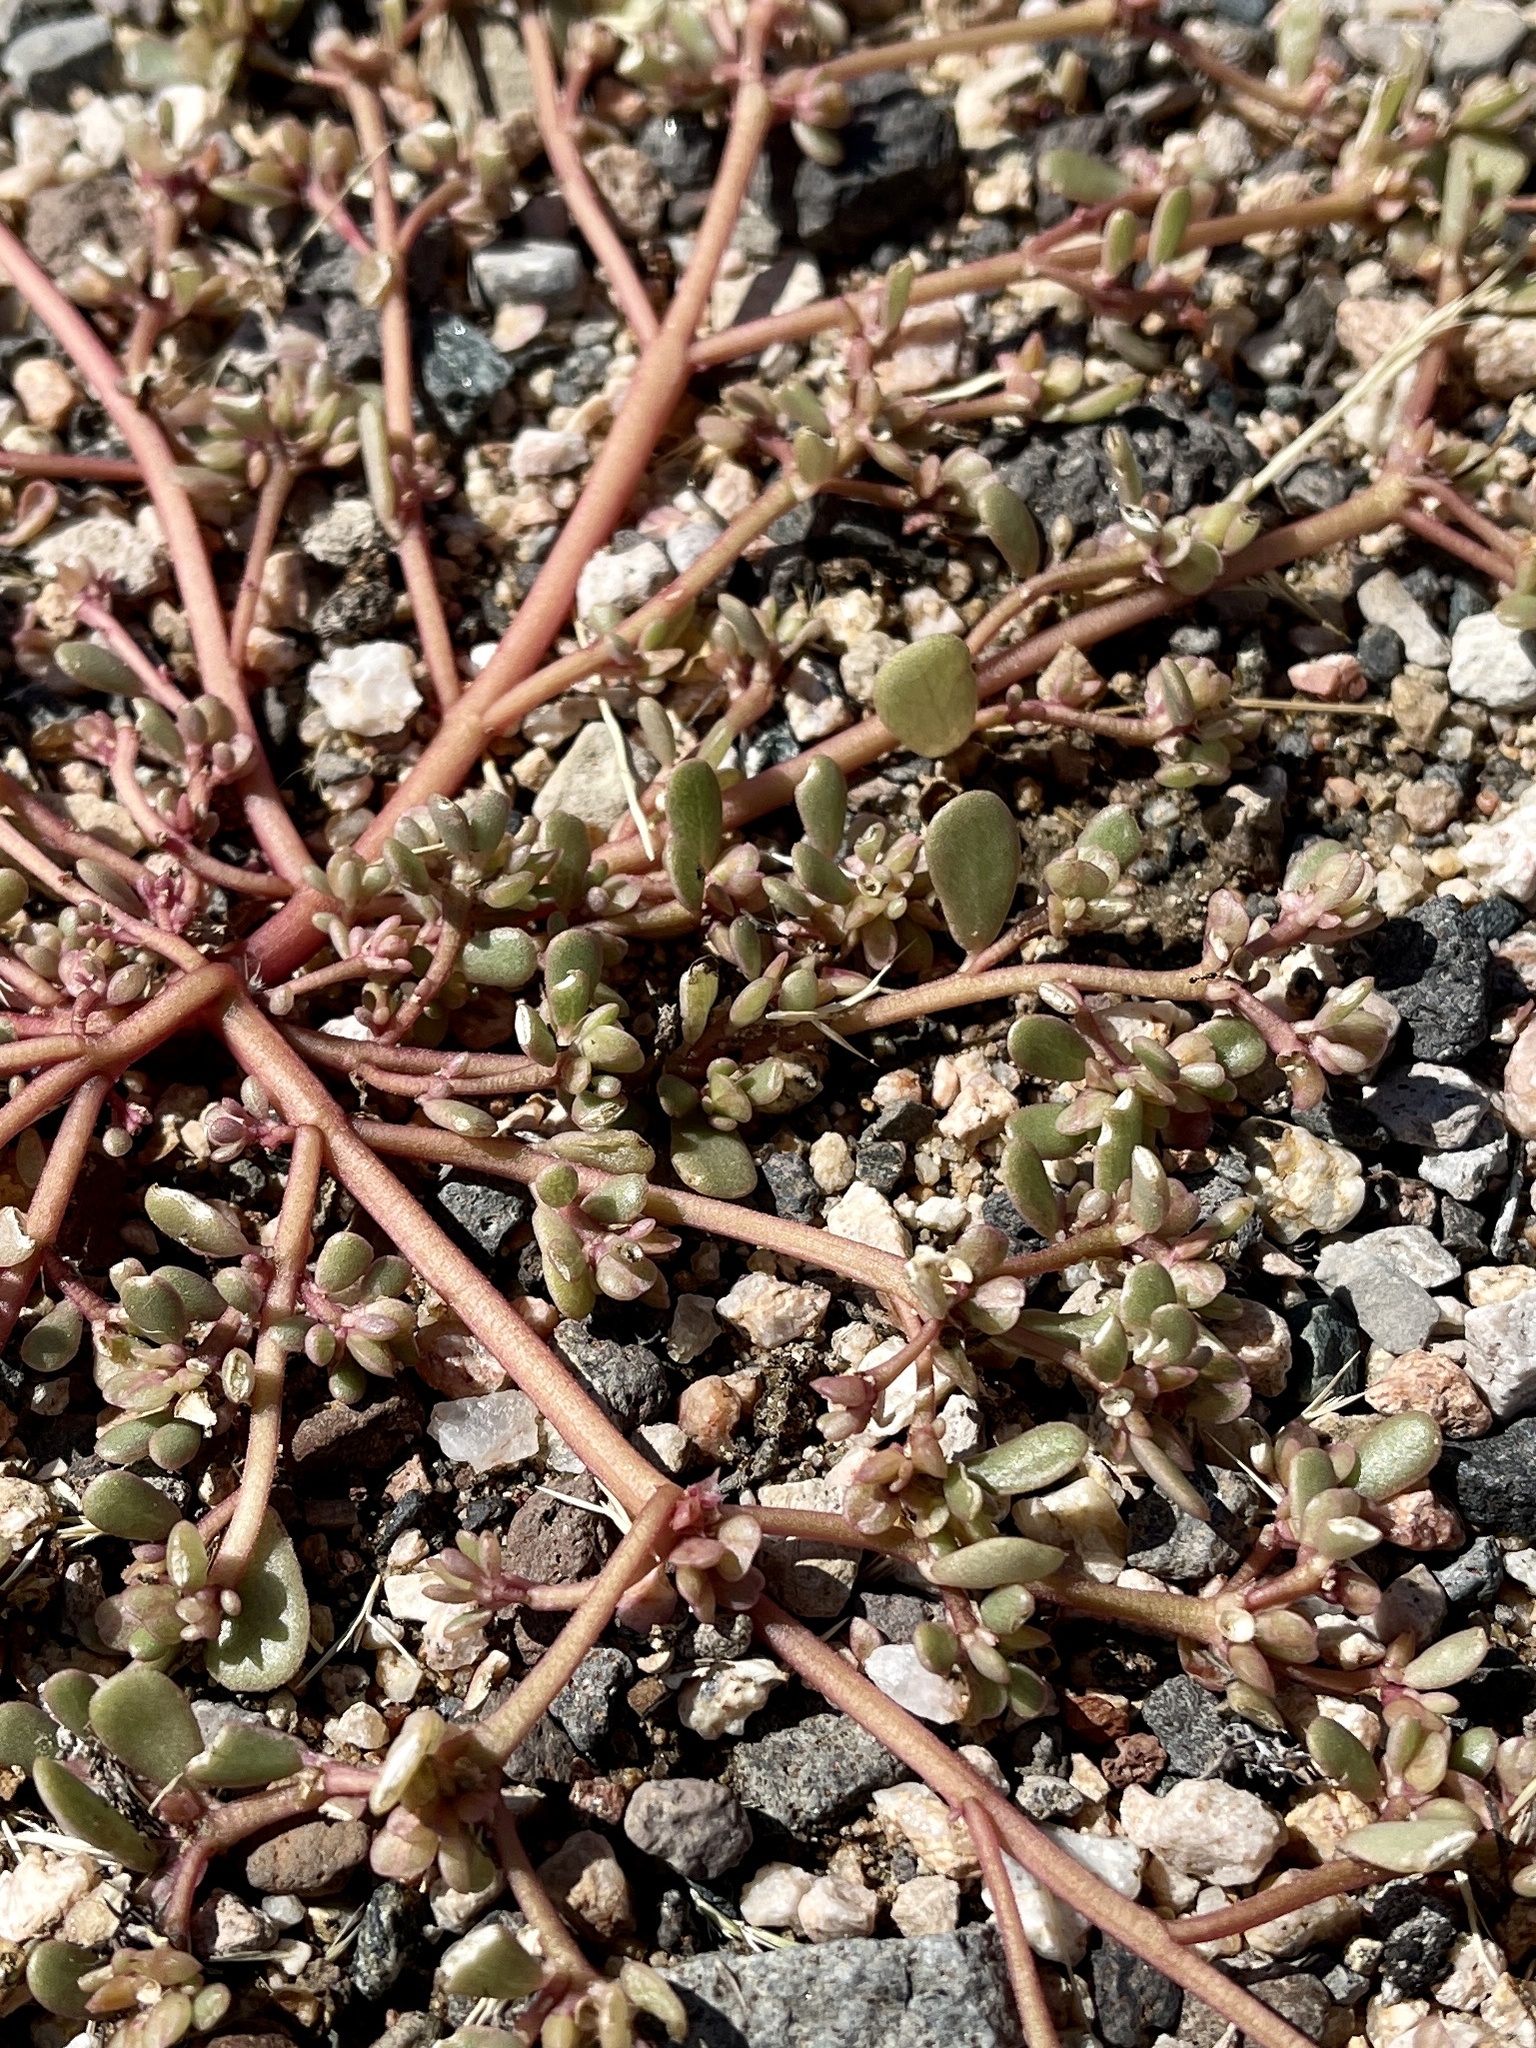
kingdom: Plantae
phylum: Tracheophyta
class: Magnoliopsida
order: Caryophyllales
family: Portulacaceae
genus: Portulaca
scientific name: Portulaca oleracea
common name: Common purslane
